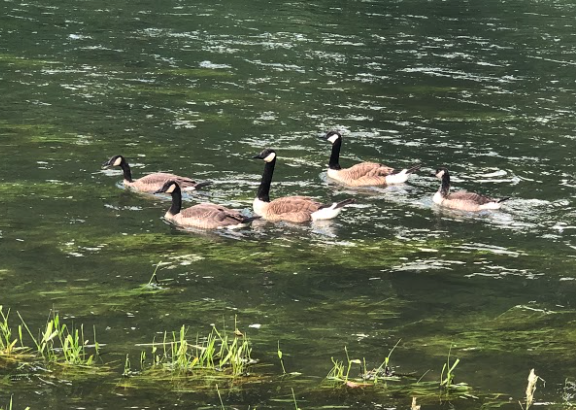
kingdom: Animalia
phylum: Chordata
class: Aves
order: Anseriformes
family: Anatidae
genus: Branta
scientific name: Branta canadensis
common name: Canada goose
